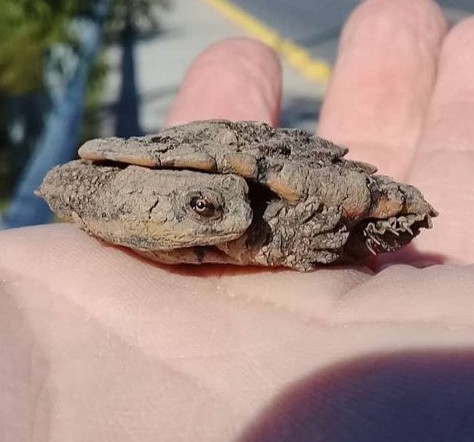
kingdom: Animalia
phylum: Chordata
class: Testudines
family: Chelidae
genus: Hydromedusa
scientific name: Hydromedusa tectifera
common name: Argentine snake-necked turtle
